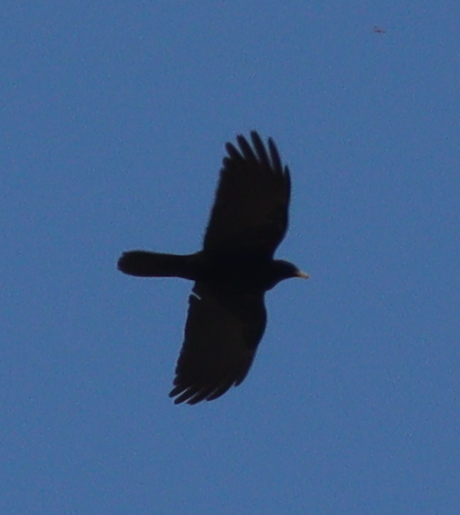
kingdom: Animalia
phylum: Chordata
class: Aves
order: Passeriformes
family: Corvidae
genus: Pyrrhocorax
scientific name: Pyrrhocorax graculus
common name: Alpine chough
